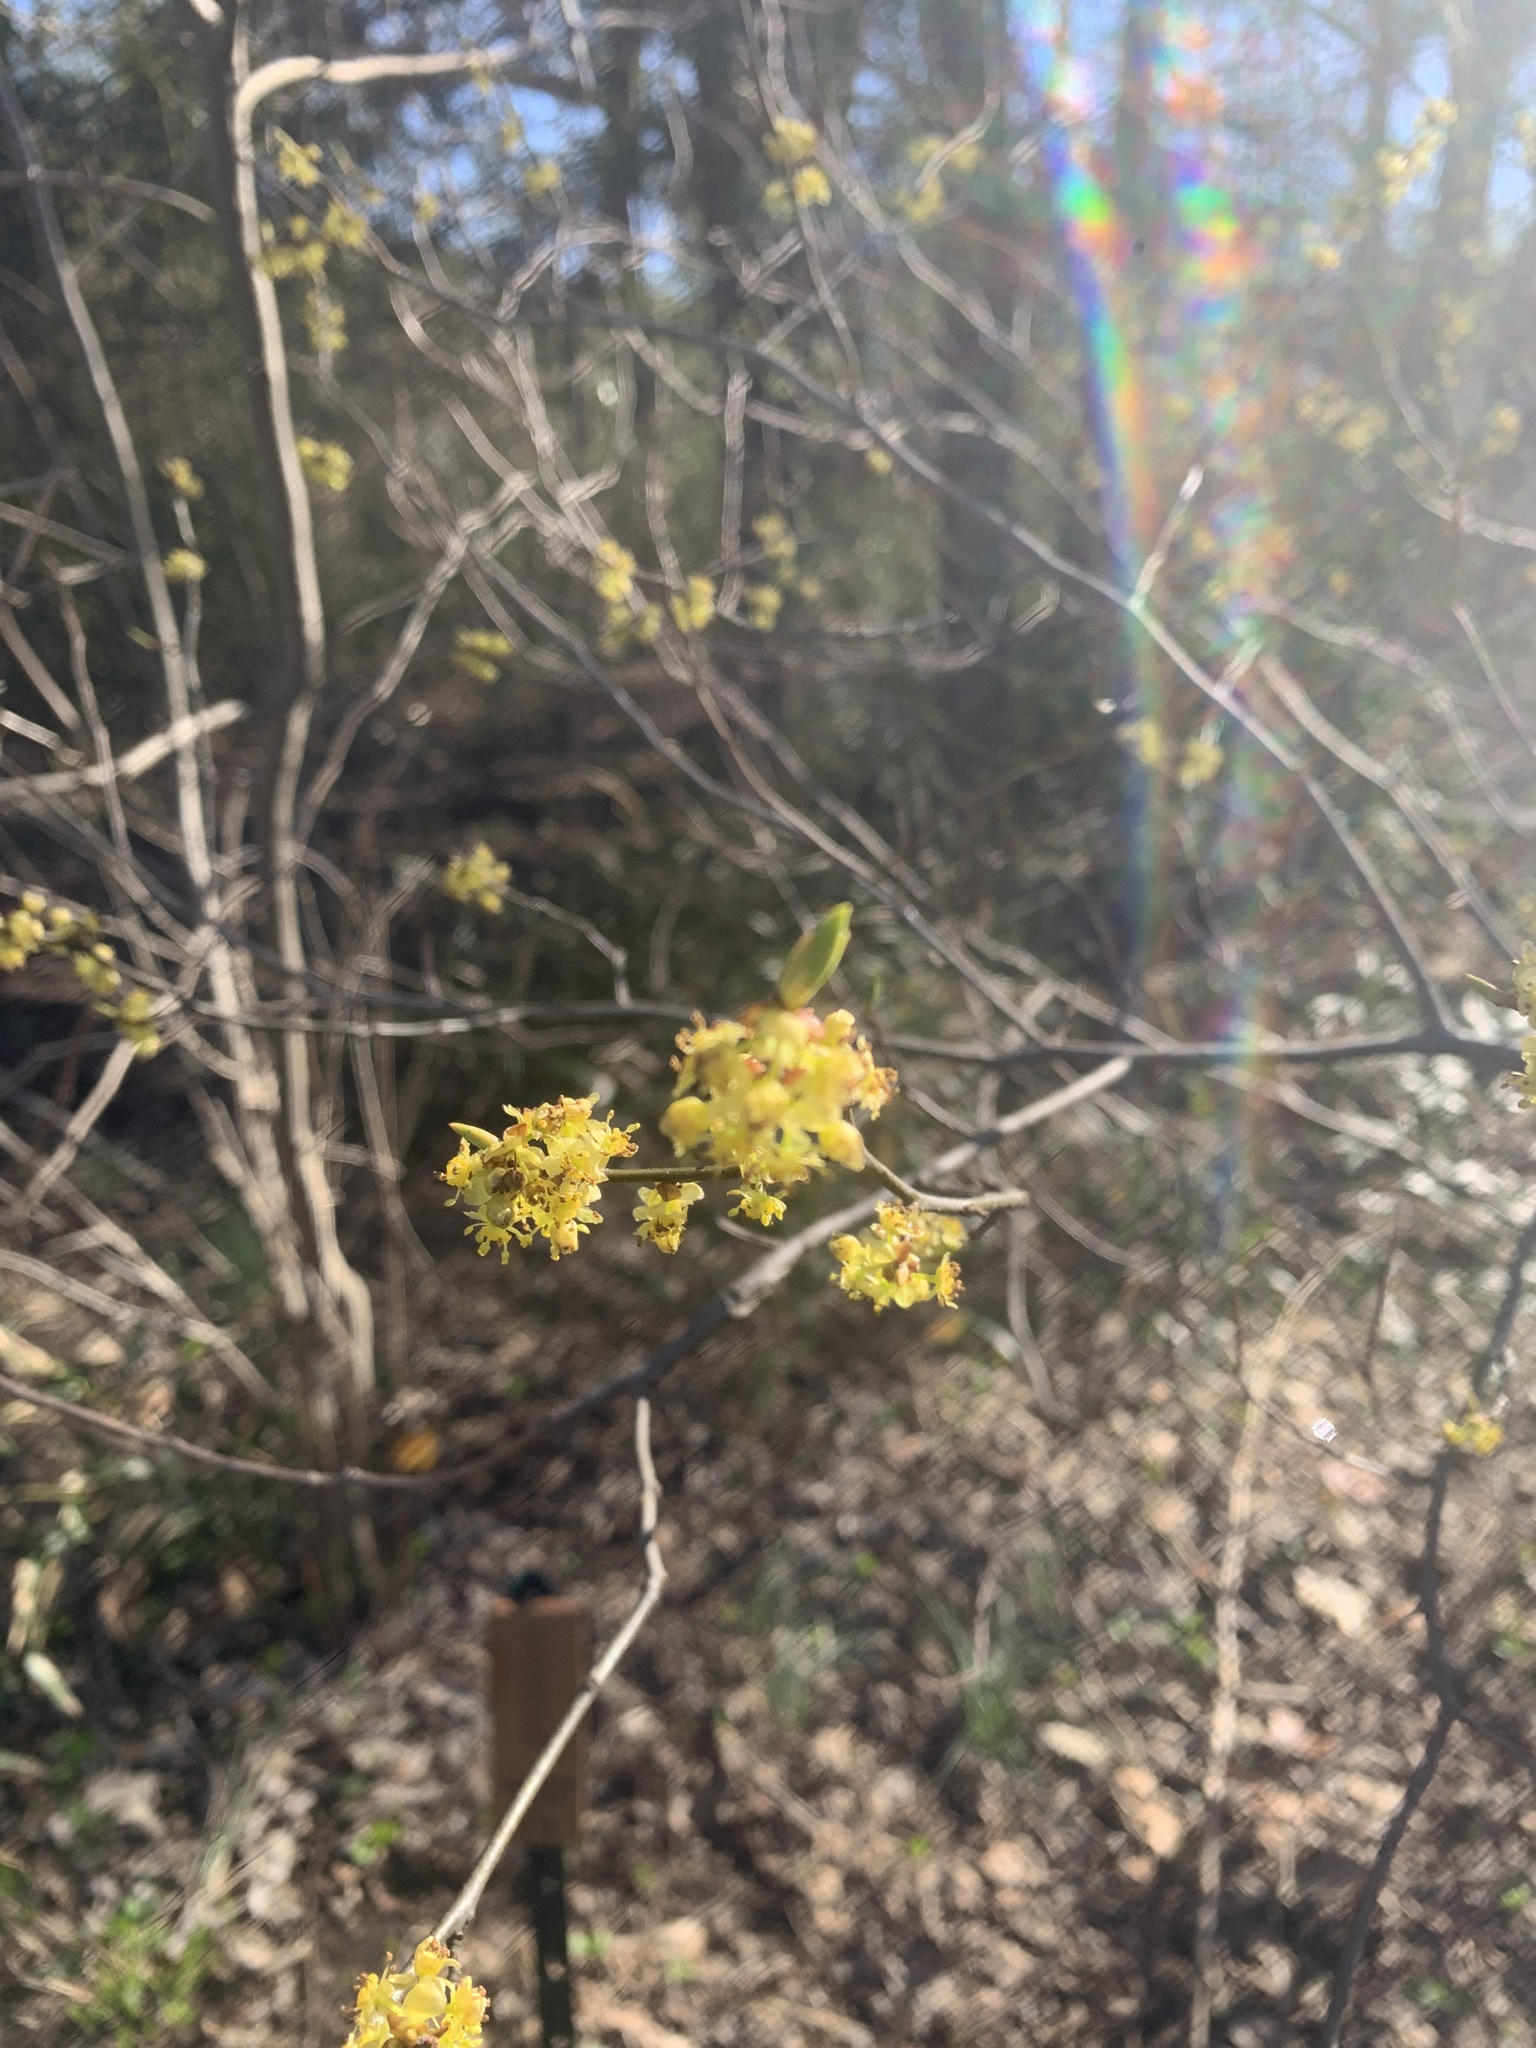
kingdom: Plantae
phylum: Tracheophyta
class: Magnoliopsida
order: Laurales
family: Lauraceae
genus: Lindera
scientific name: Lindera benzoin
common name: Spicebush
